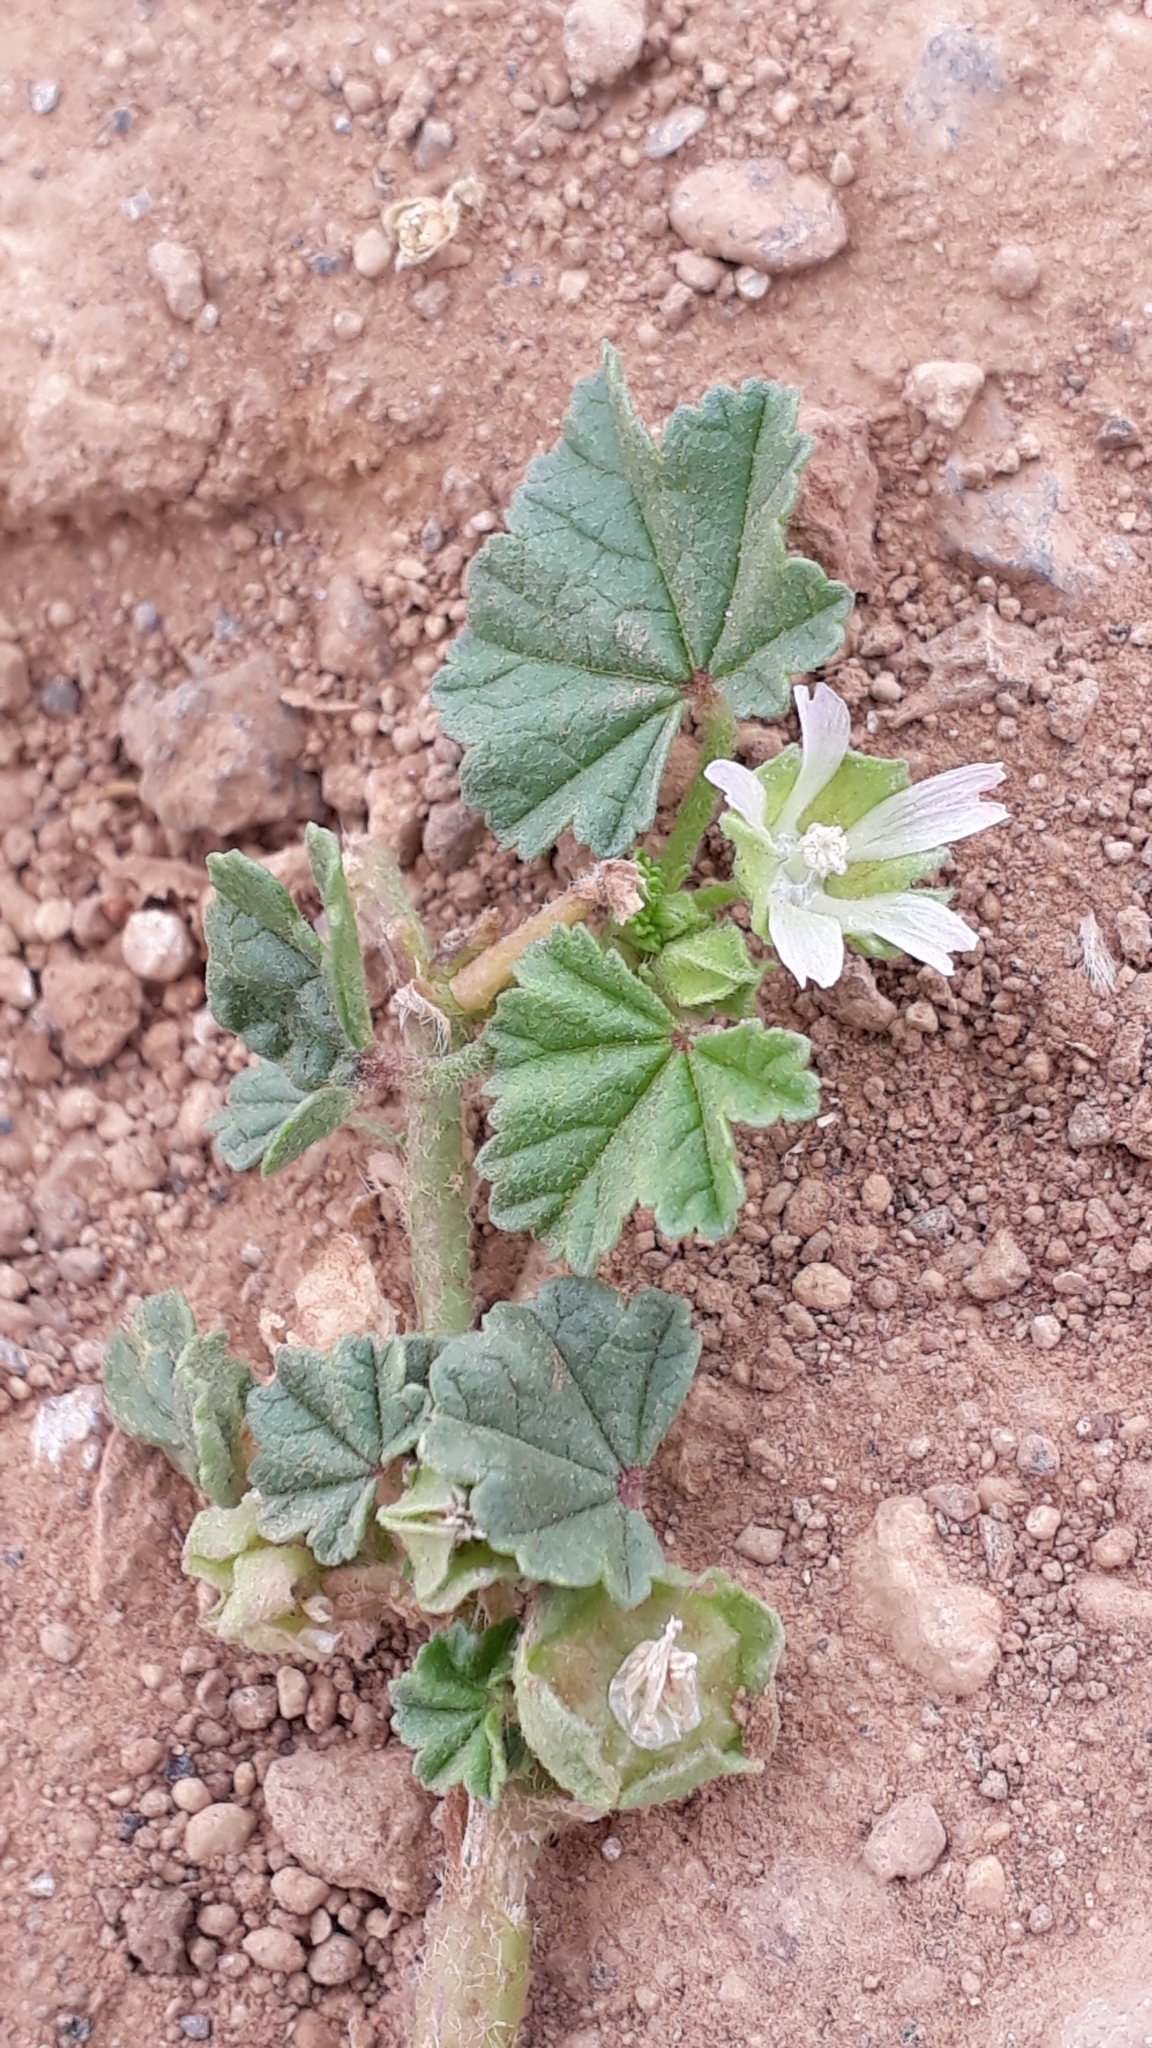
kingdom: Plantae
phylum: Tracheophyta
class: Magnoliopsida
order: Malvales
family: Malvaceae
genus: Malva
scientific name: Malva parviflora
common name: Least mallow
